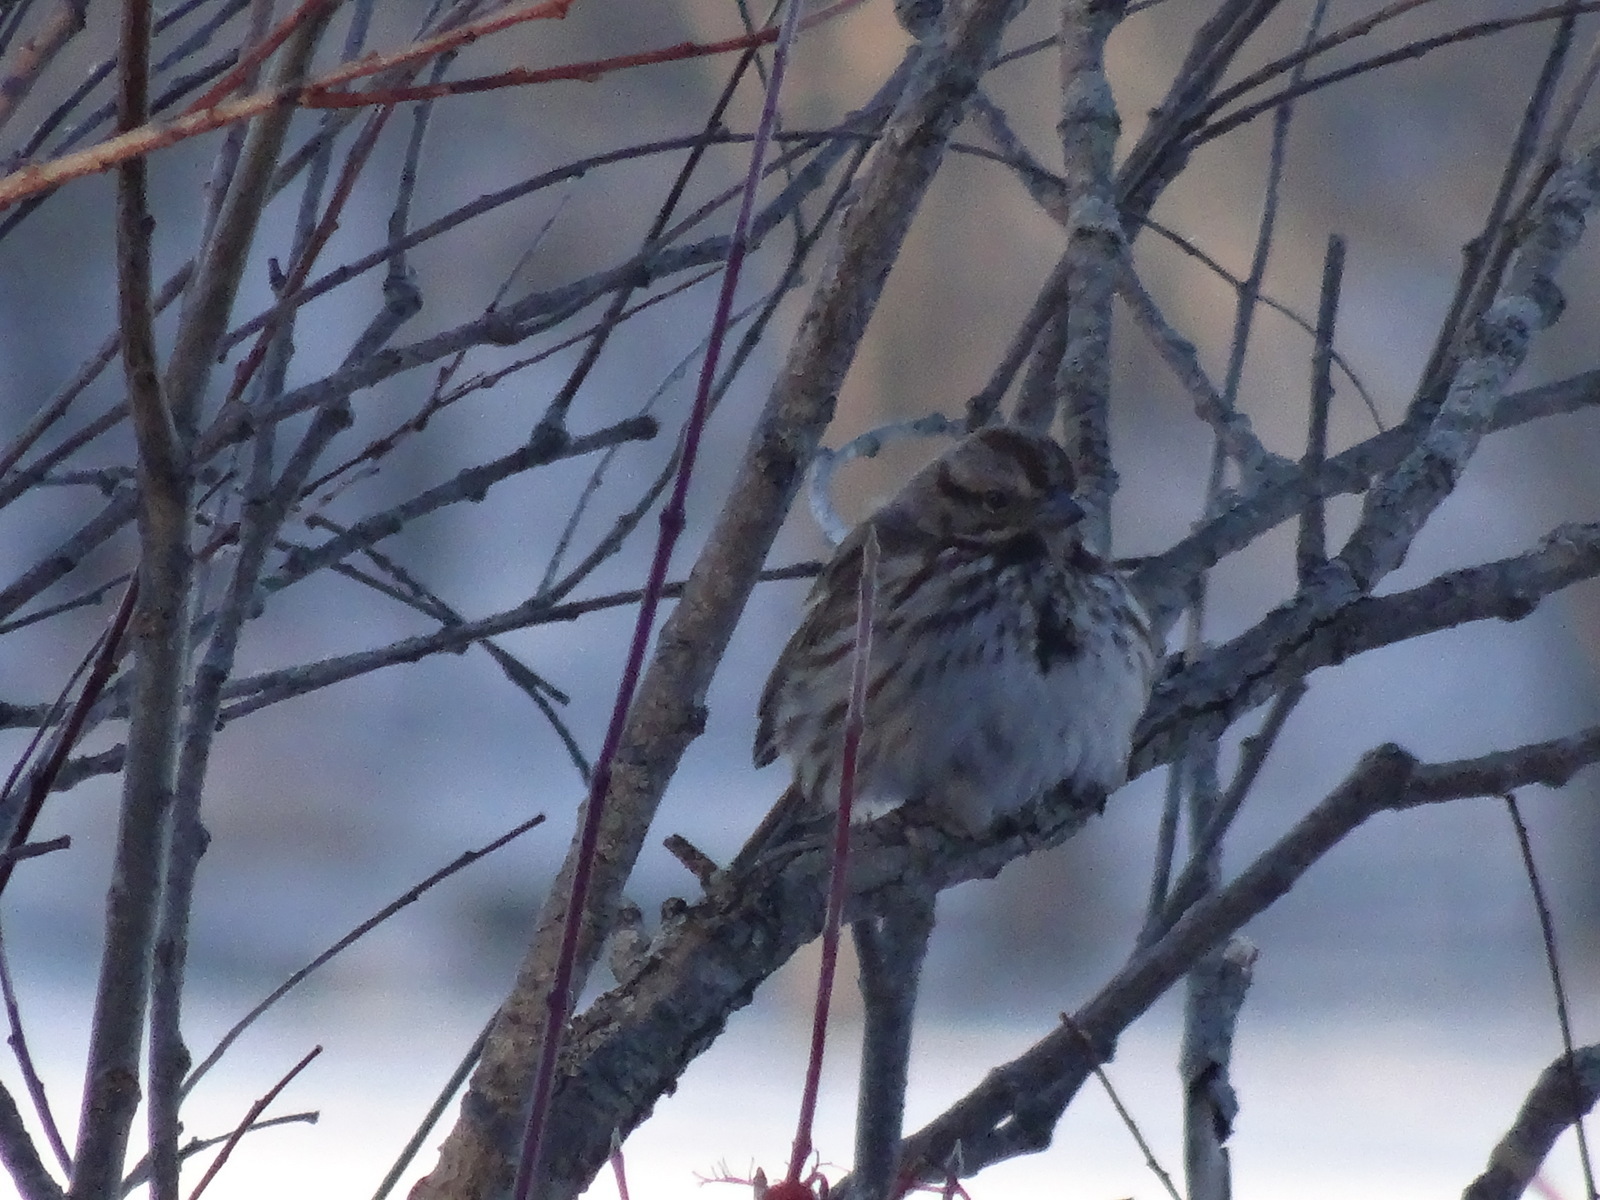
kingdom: Animalia
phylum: Chordata
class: Aves
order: Passeriformes
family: Passerellidae
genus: Melospiza
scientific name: Melospiza melodia
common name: Song sparrow
